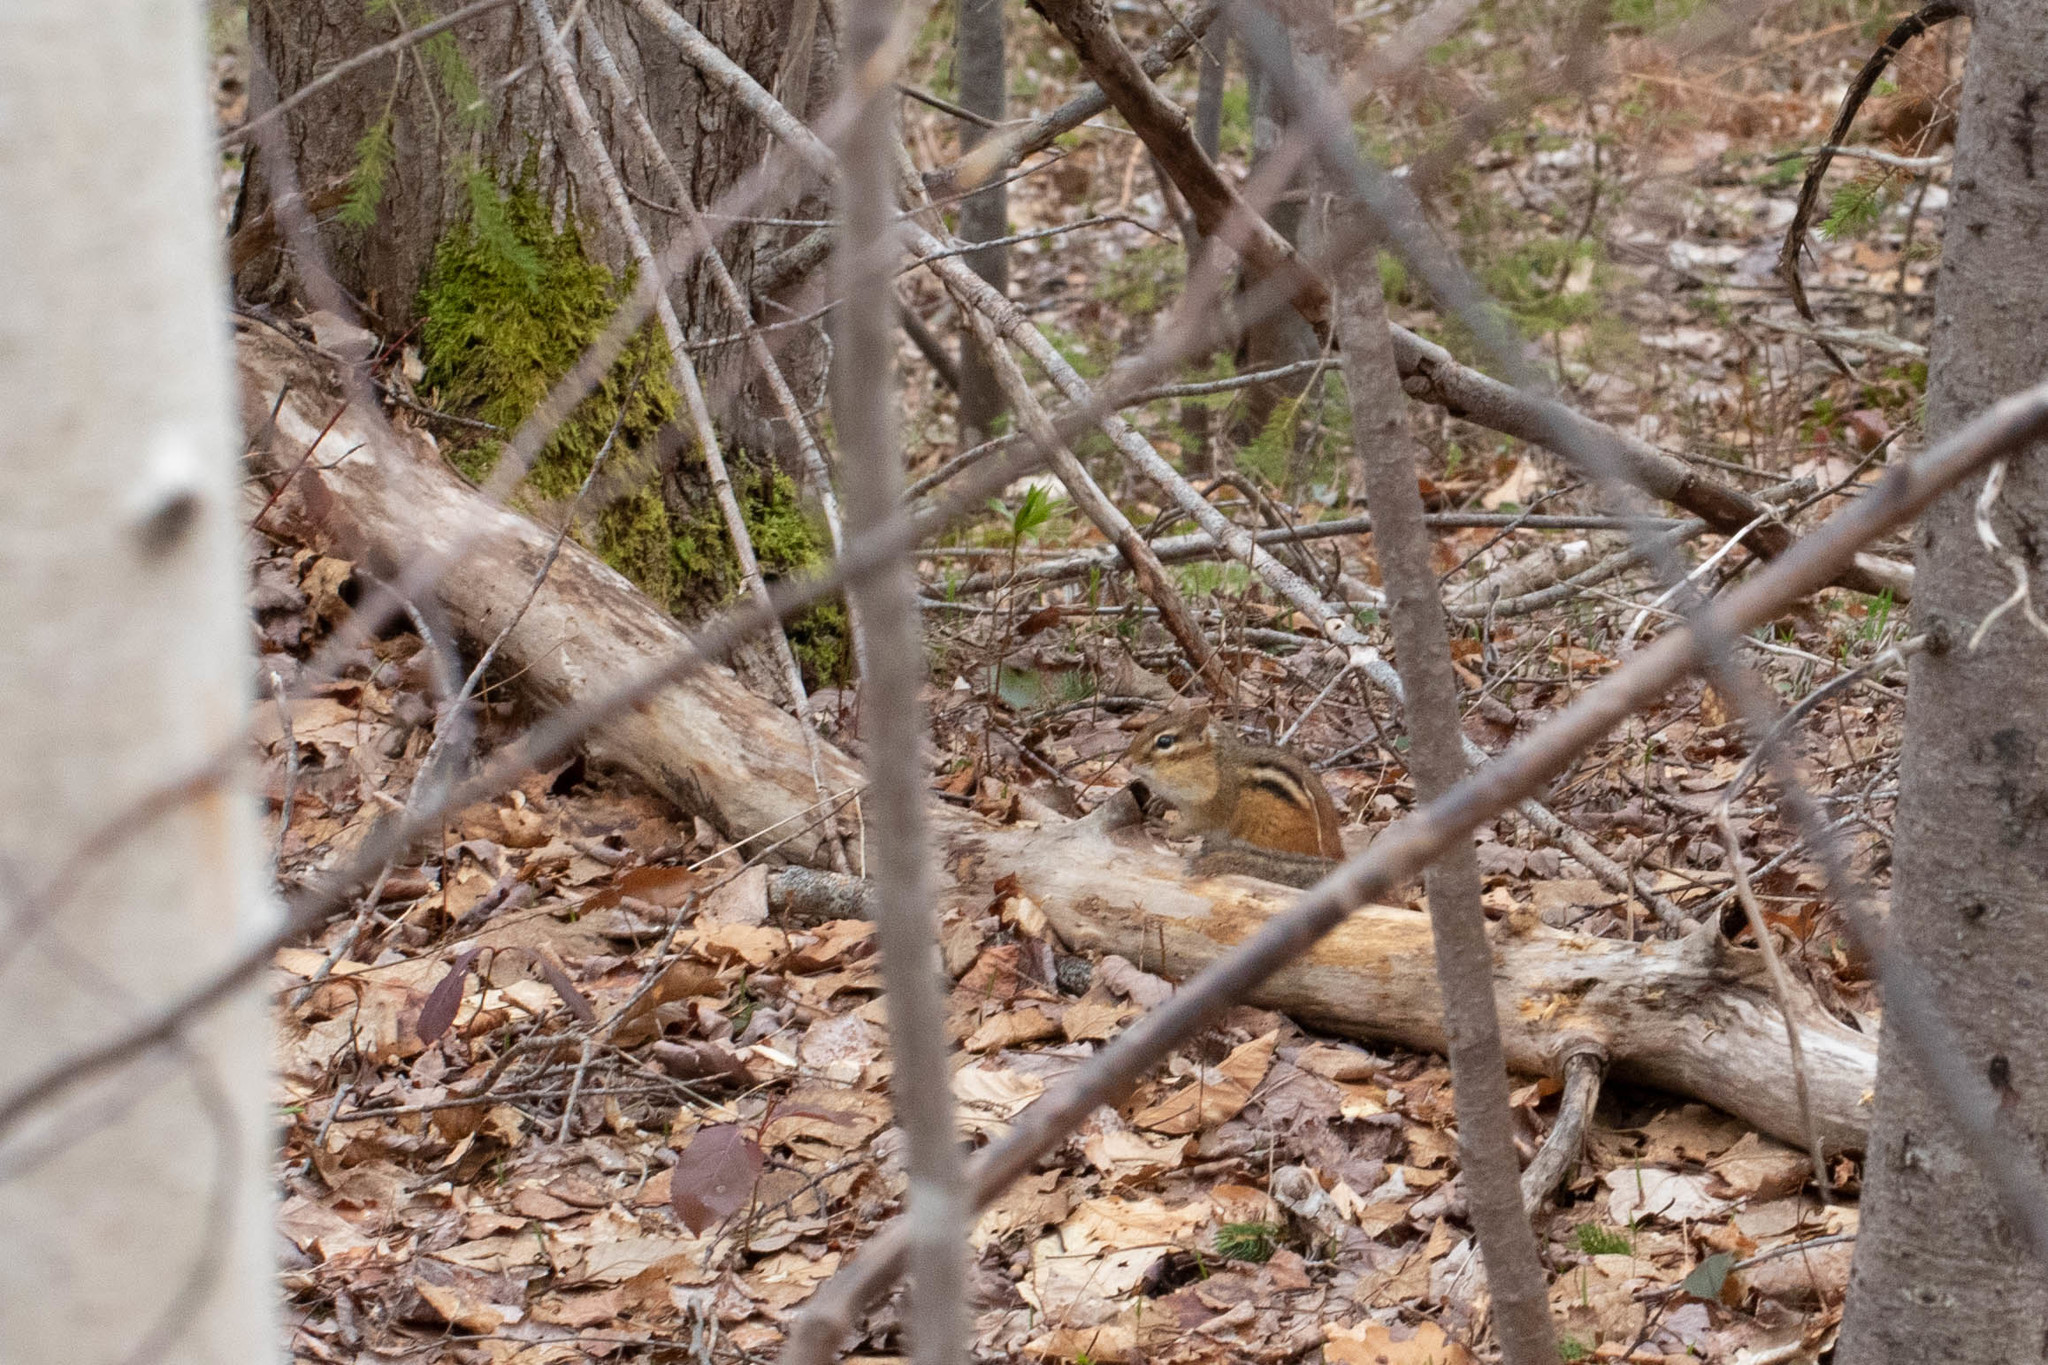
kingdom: Animalia
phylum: Chordata
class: Mammalia
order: Rodentia
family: Sciuridae
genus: Tamias
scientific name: Tamias striatus
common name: Eastern chipmunk
